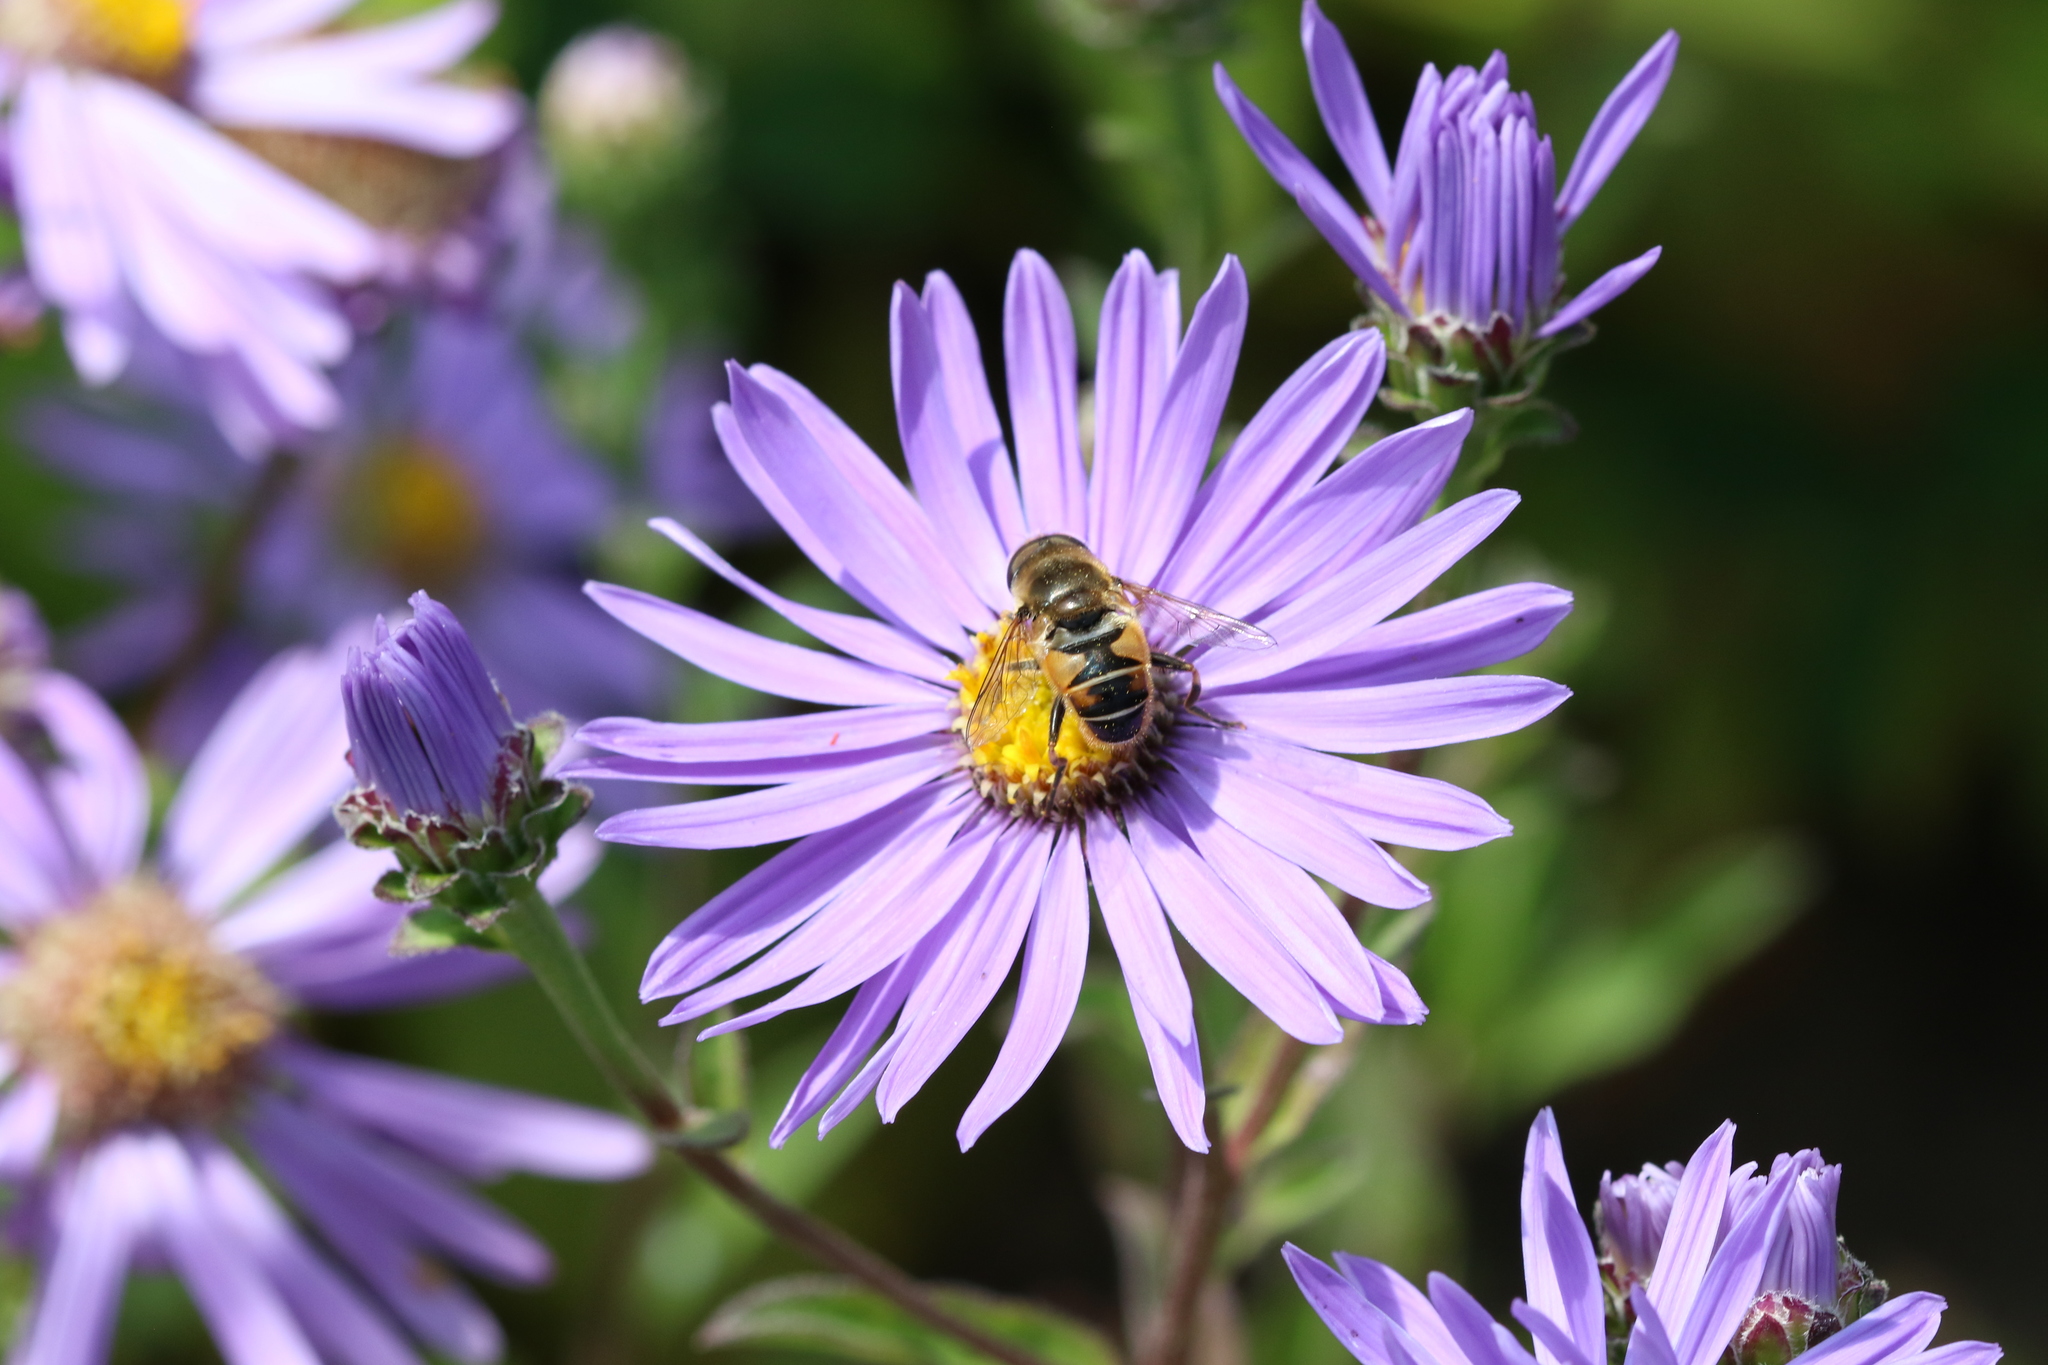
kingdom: Animalia
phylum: Arthropoda
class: Insecta
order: Diptera
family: Syrphidae
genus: Helophilus
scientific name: Helophilus trivittatus
